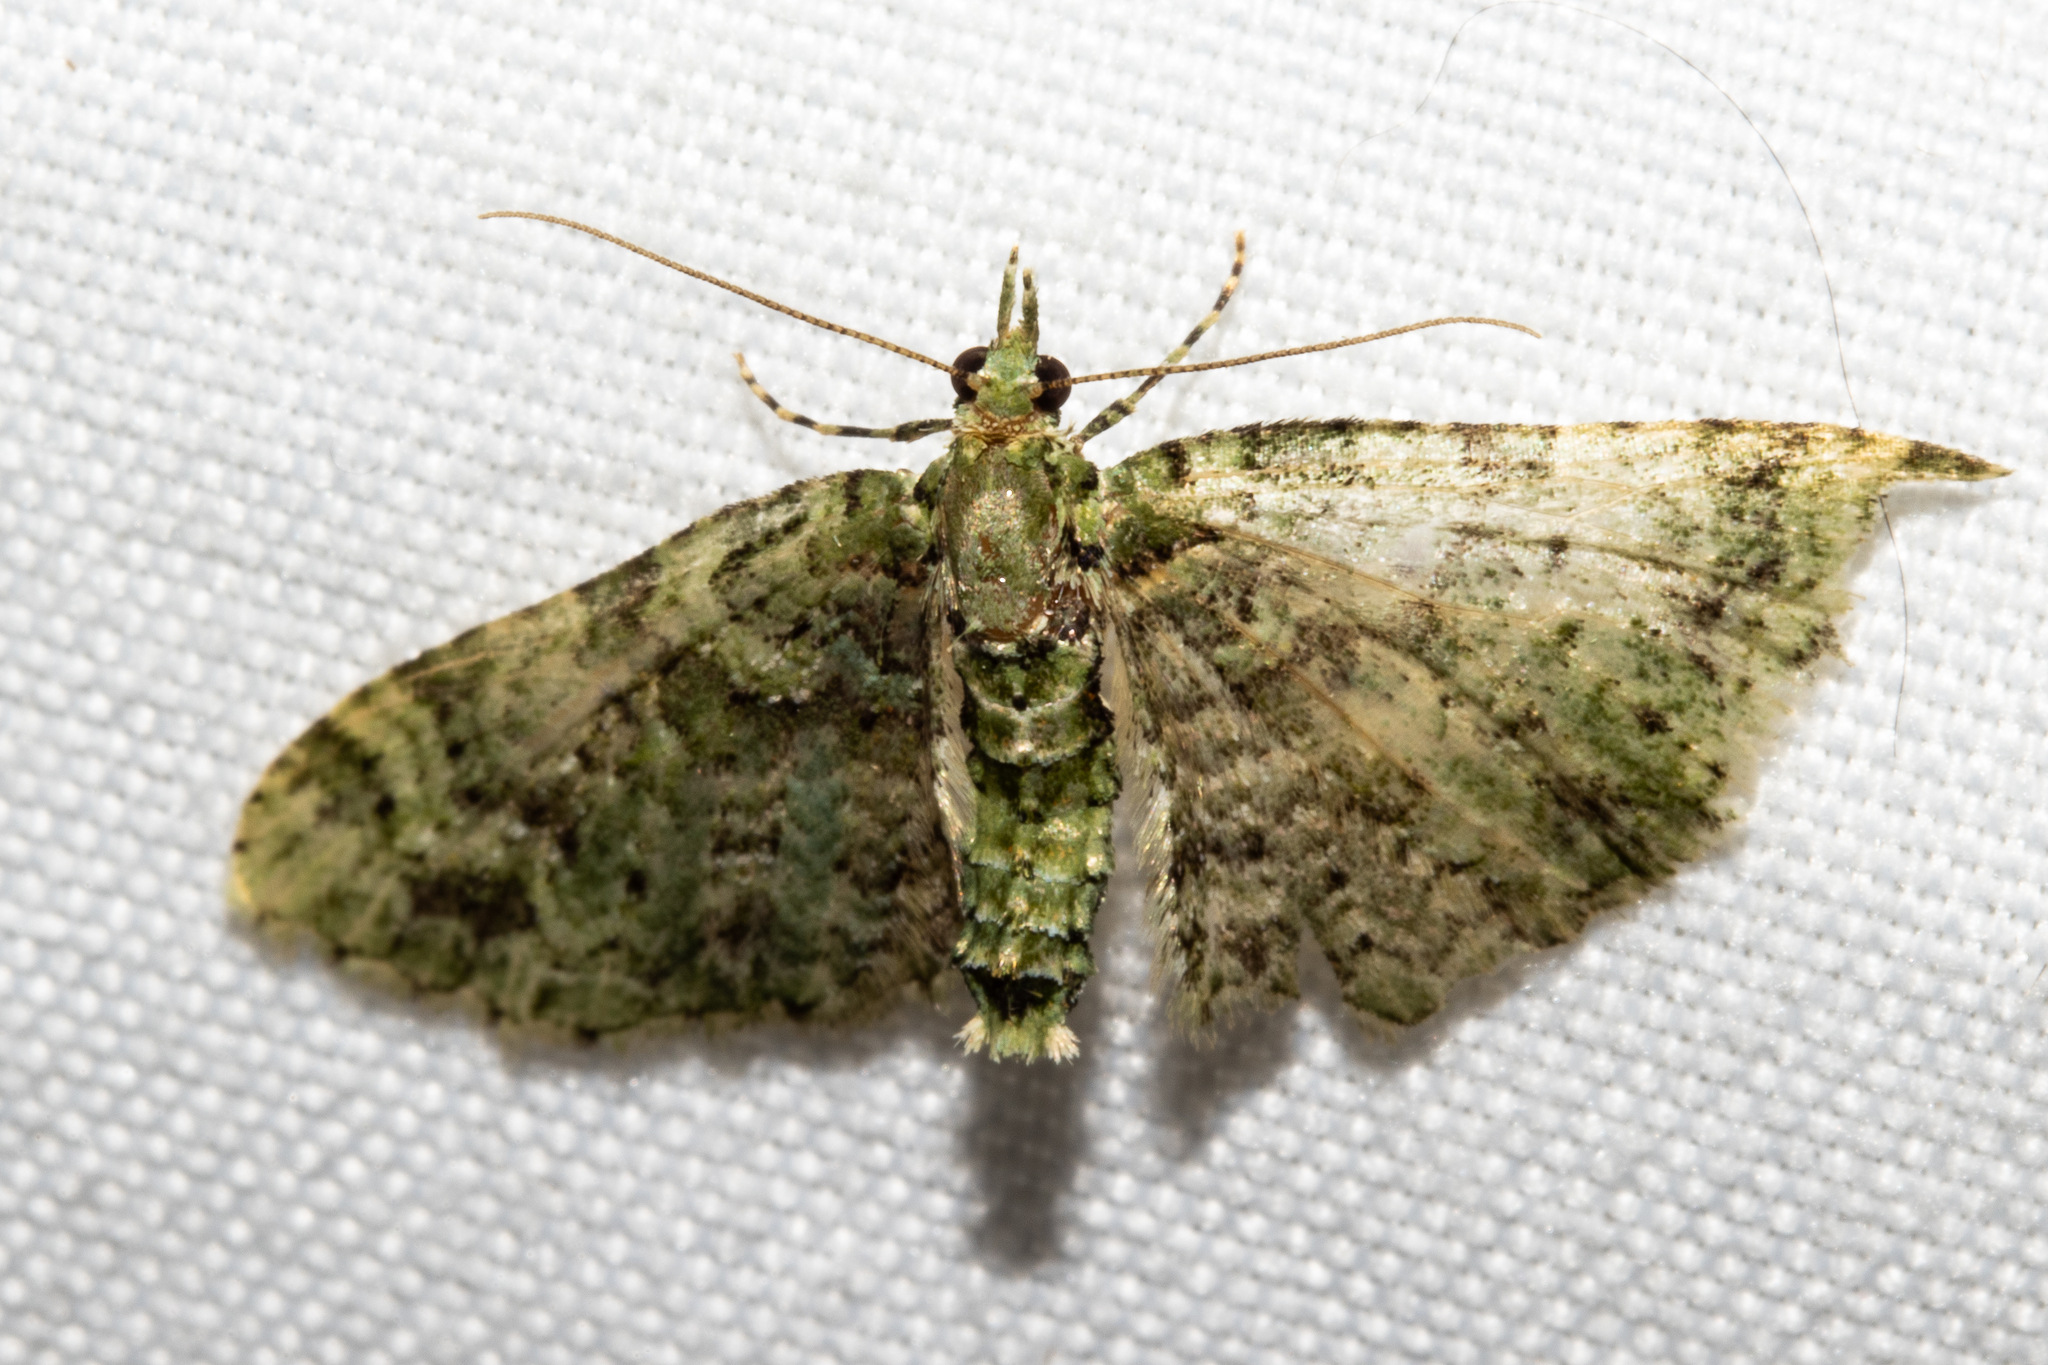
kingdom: Animalia
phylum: Arthropoda
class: Insecta
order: Lepidoptera
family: Geometridae
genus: Pasiphila
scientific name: Pasiphila muscosata
